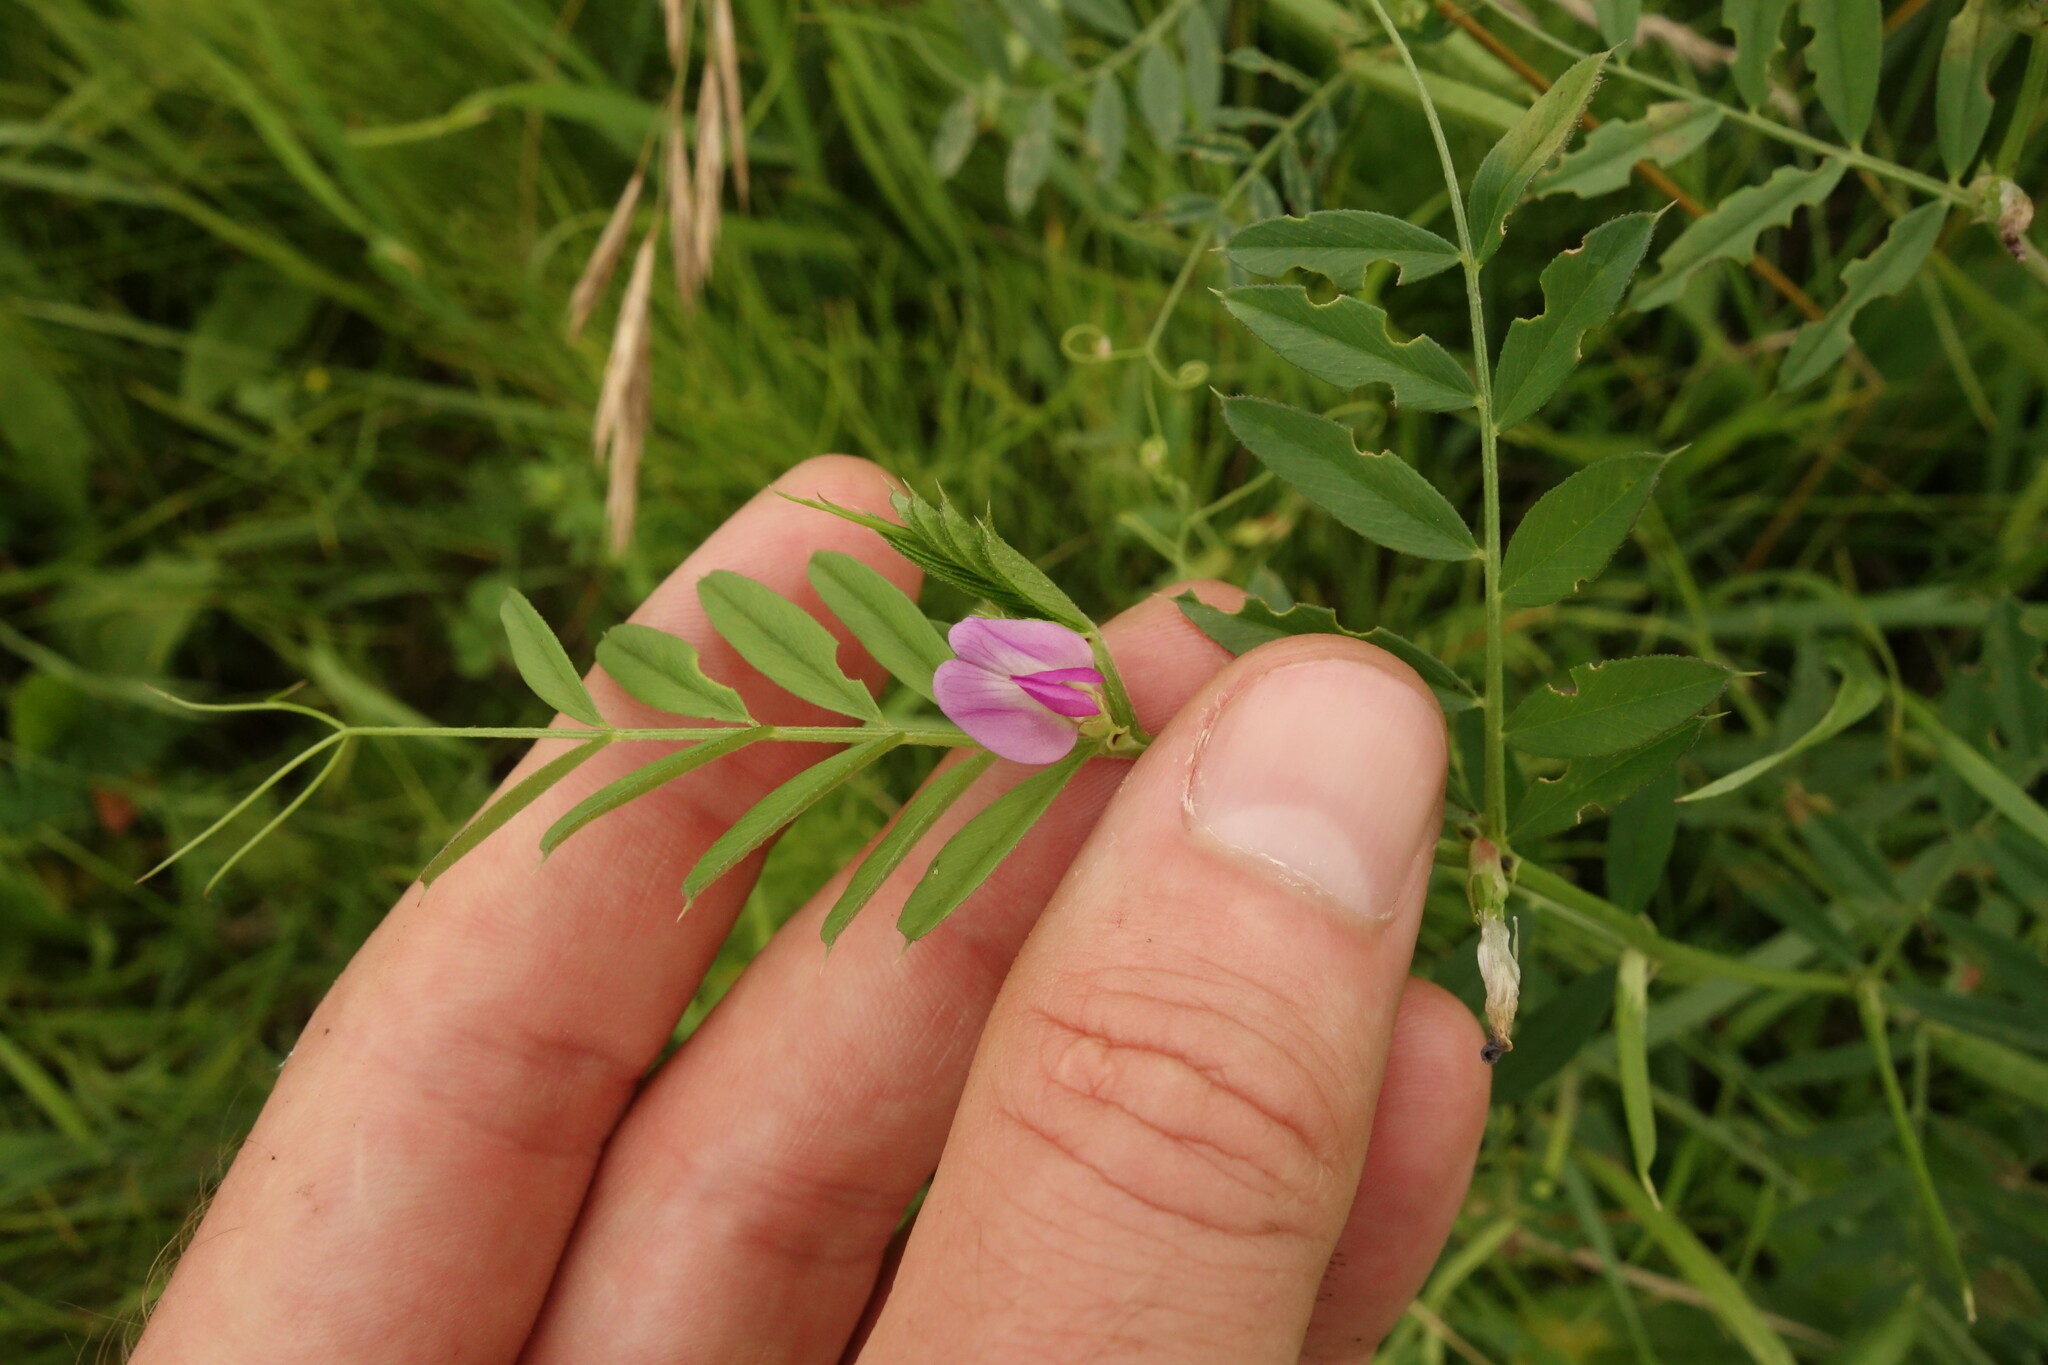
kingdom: Plantae
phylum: Tracheophyta
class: Magnoliopsida
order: Fabales
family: Fabaceae
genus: Vicia
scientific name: Vicia sativa
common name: Garden vetch
